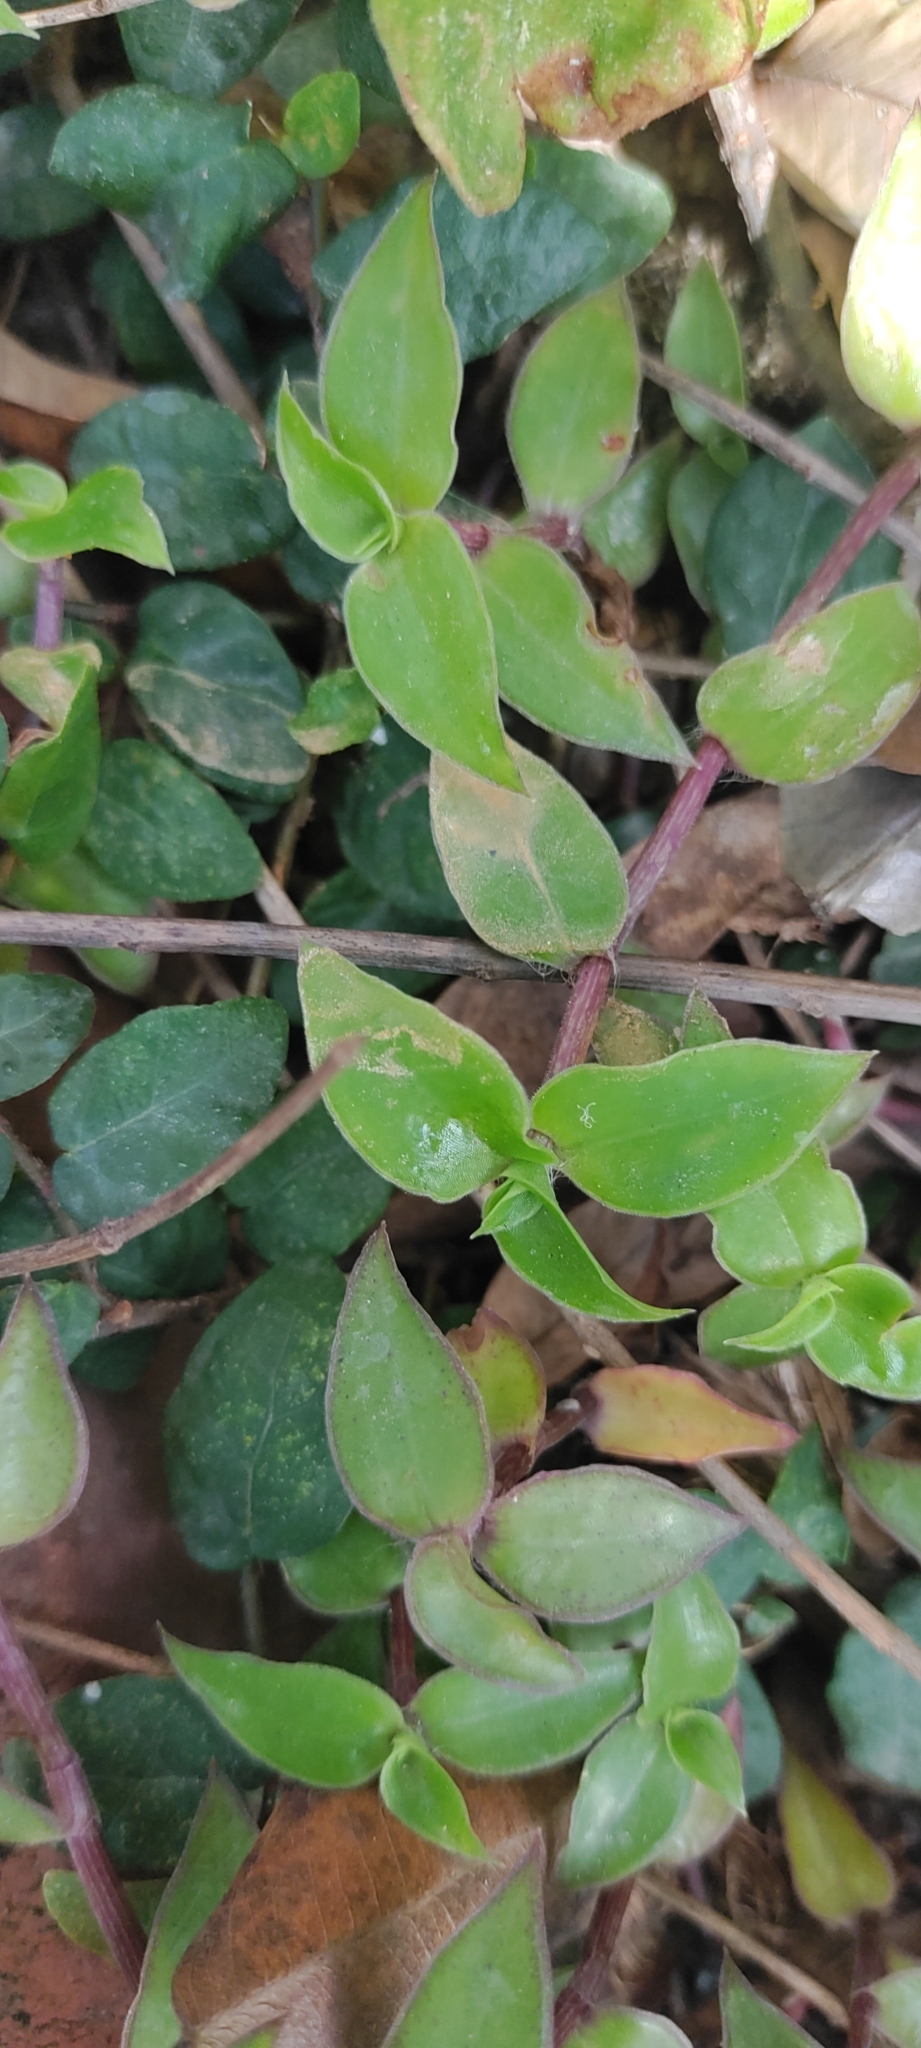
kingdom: Plantae
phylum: Tracheophyta
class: Liliopsida
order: Commelinales
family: Commelinaceae
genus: Callisia
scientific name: Callisia repens
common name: Creeping inchplant
